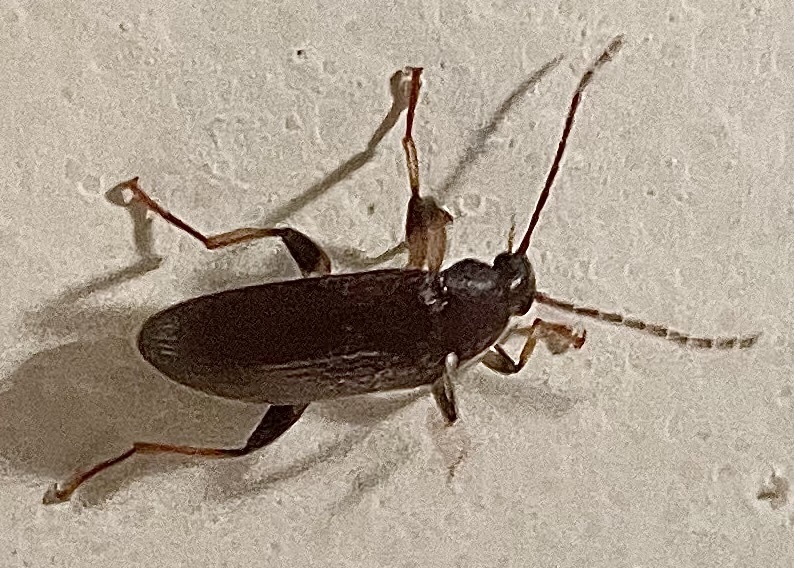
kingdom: Animalia
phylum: Arthropoda
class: Insecta
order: Coleoptera
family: Tenebrionidae
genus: Homotrysis
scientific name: Homotrysis
